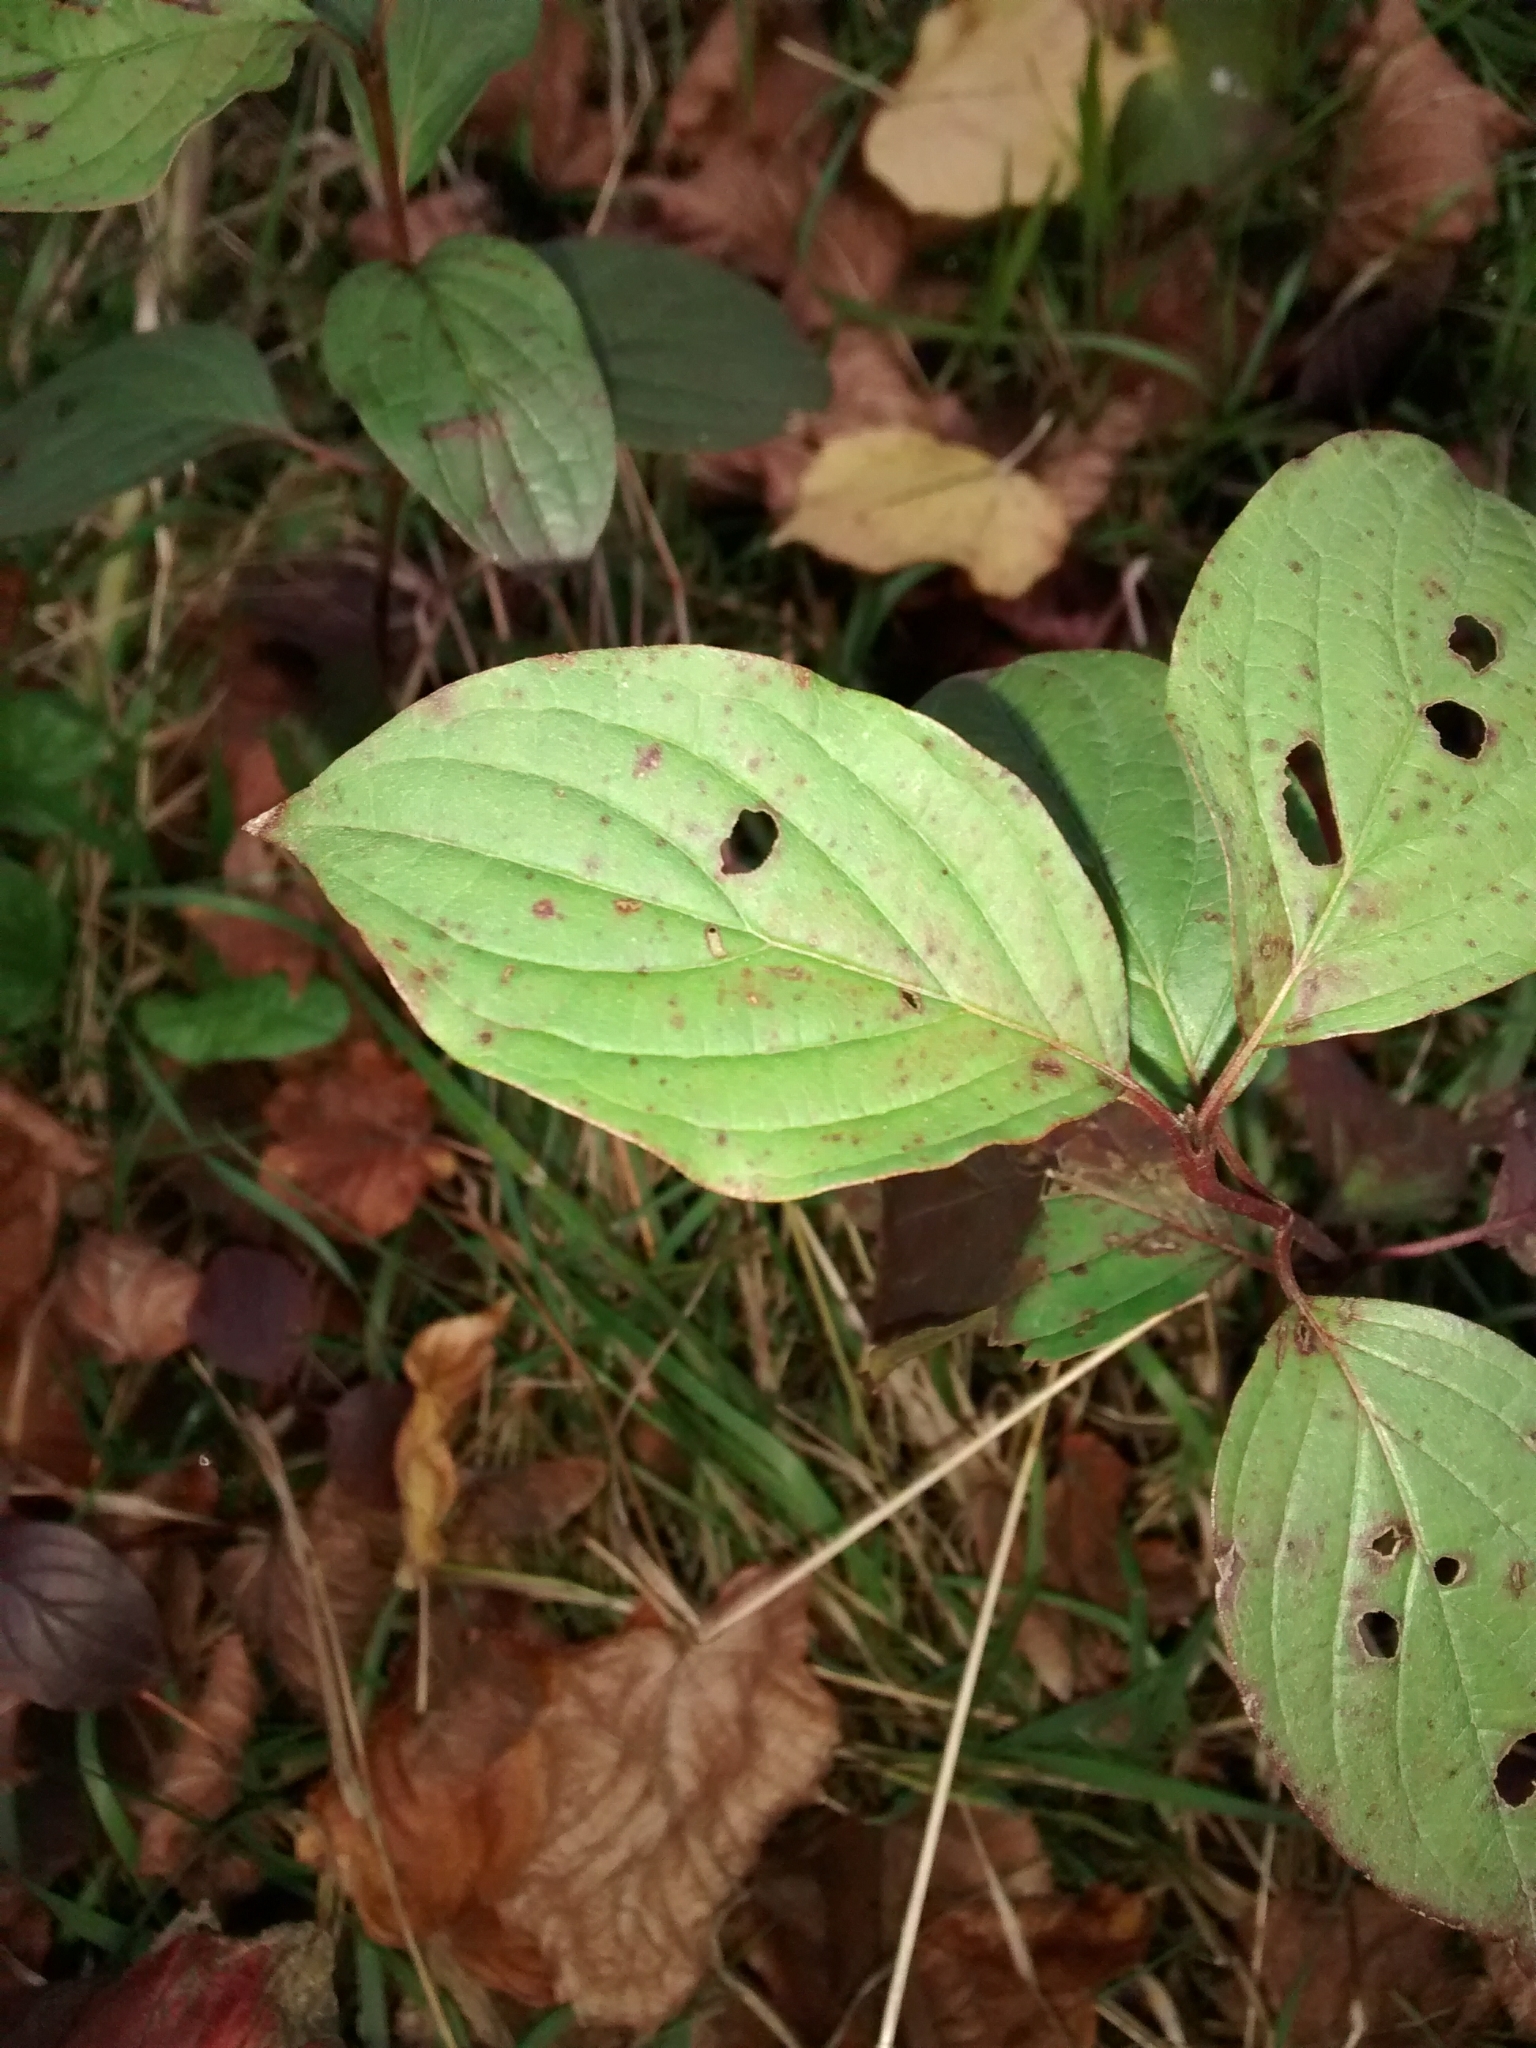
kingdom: Plantae
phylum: Tracheophyta
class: Magnoliopsida
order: Cornales
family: Cornaceae
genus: Cornus
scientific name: Cornus sanguinea
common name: Dogwood
